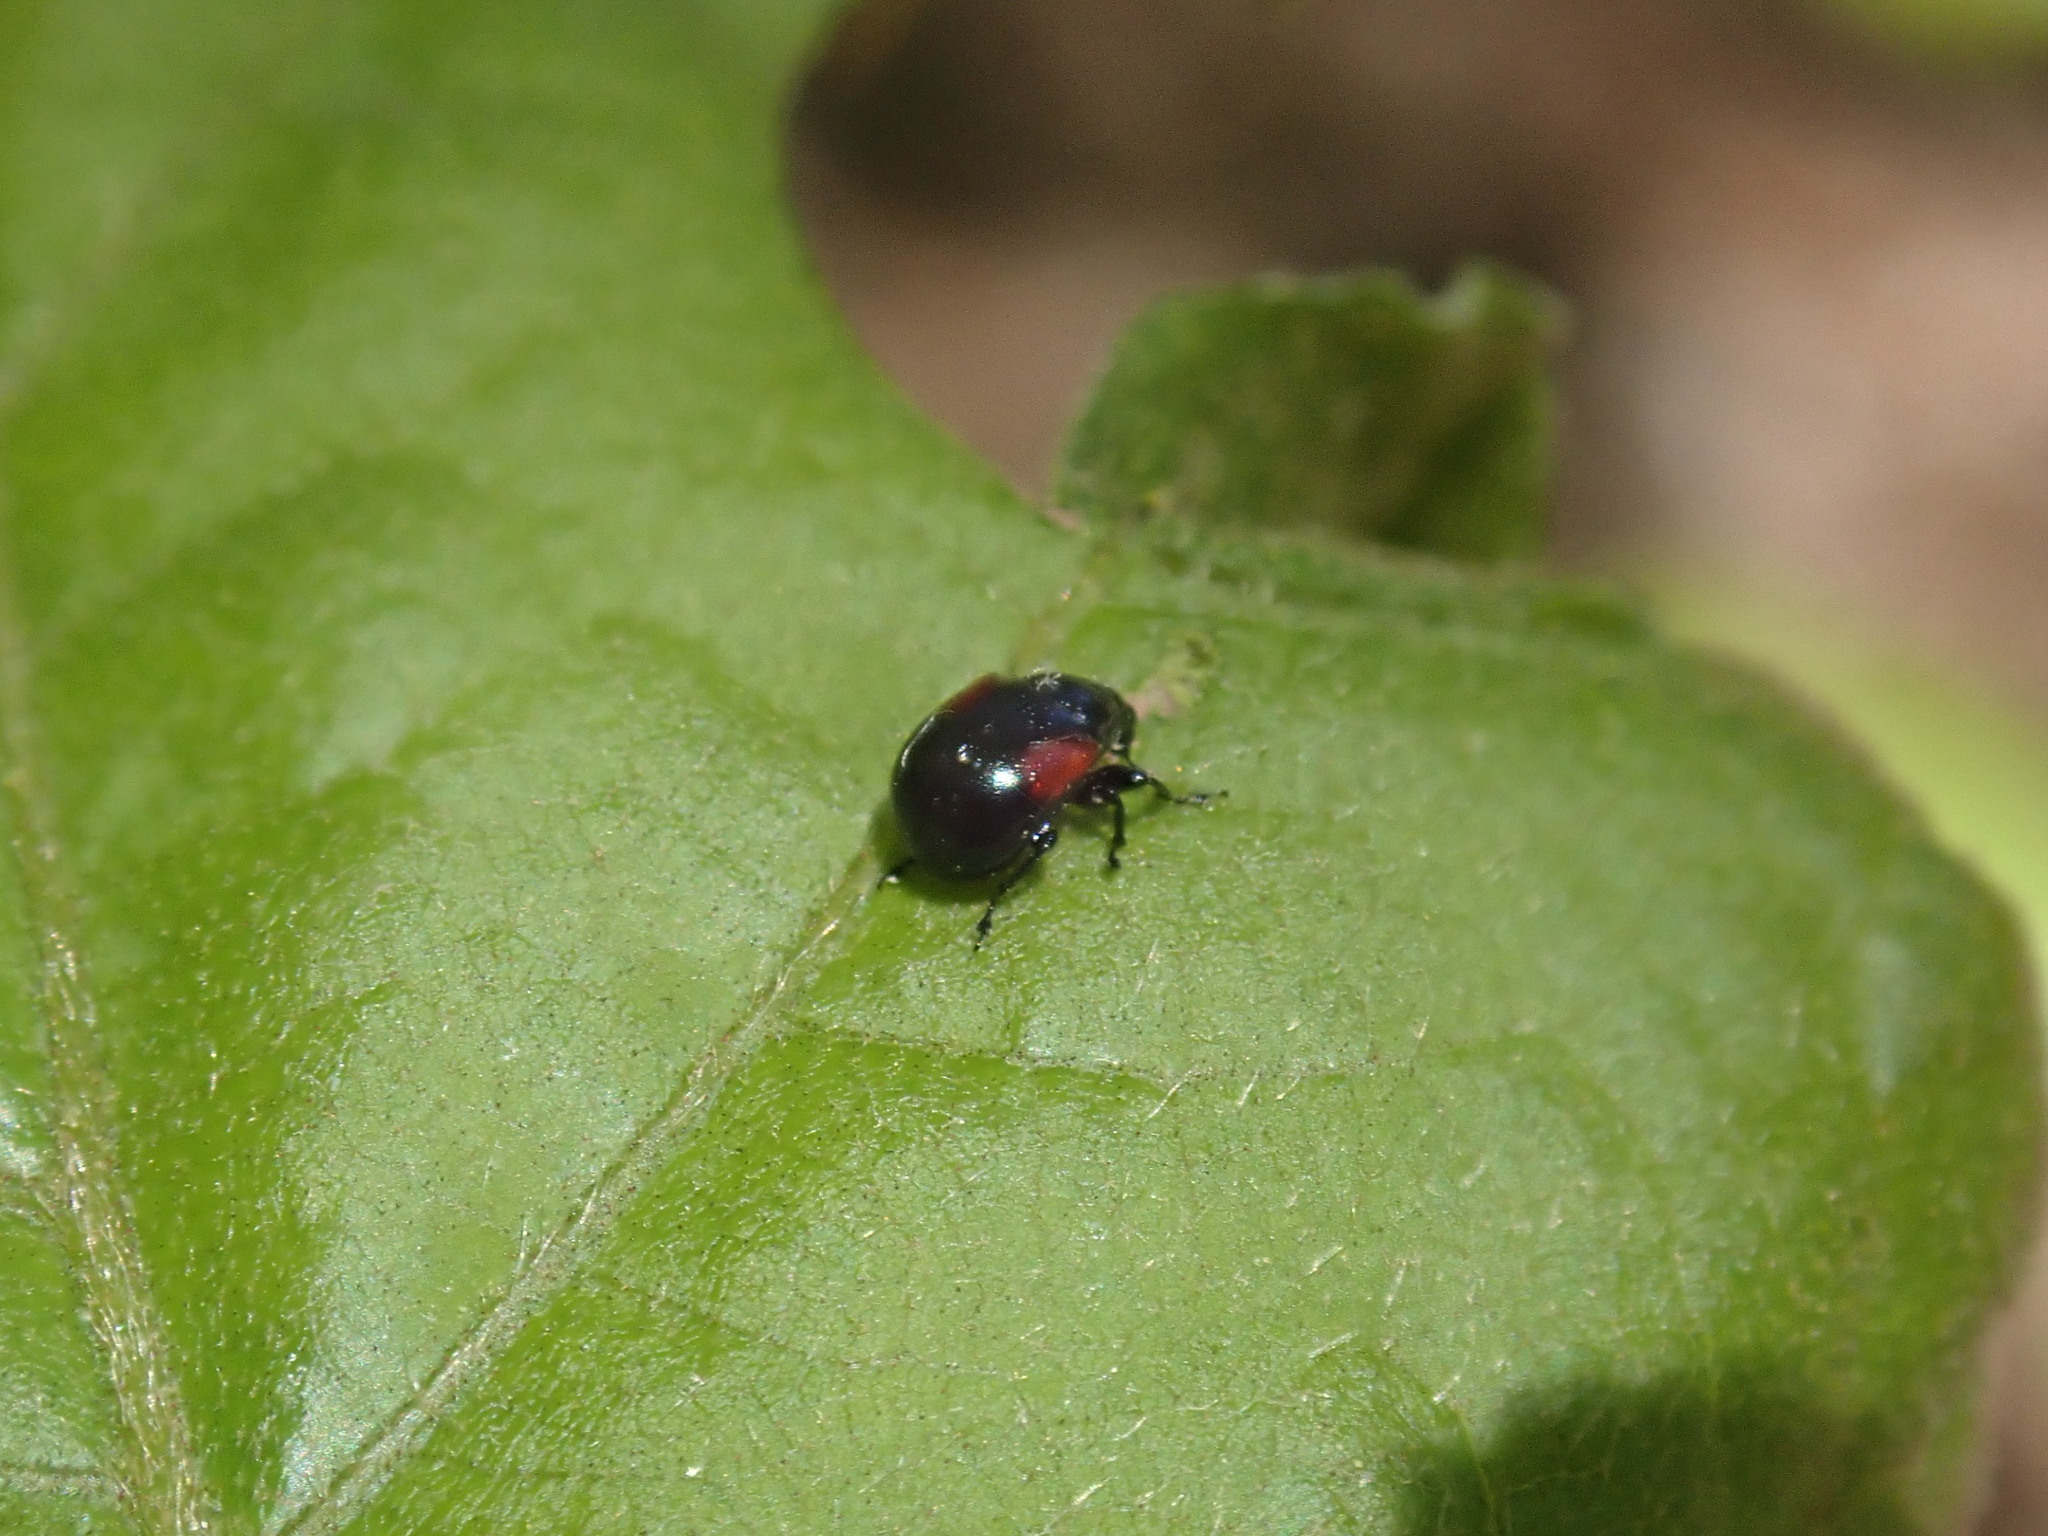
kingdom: Animalia
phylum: Arthropoda
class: Insecta
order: Coleoptera
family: Attelabidae
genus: Attelabus
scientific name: Attelabus bipustulatus
